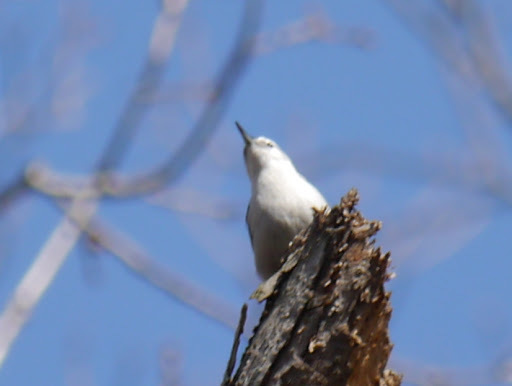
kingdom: Animalia
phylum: Chordata
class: Aves
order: Passeriformes
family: Sittidae
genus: Sitta
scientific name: Sitta carolinensis
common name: White-breasted nuthatch
